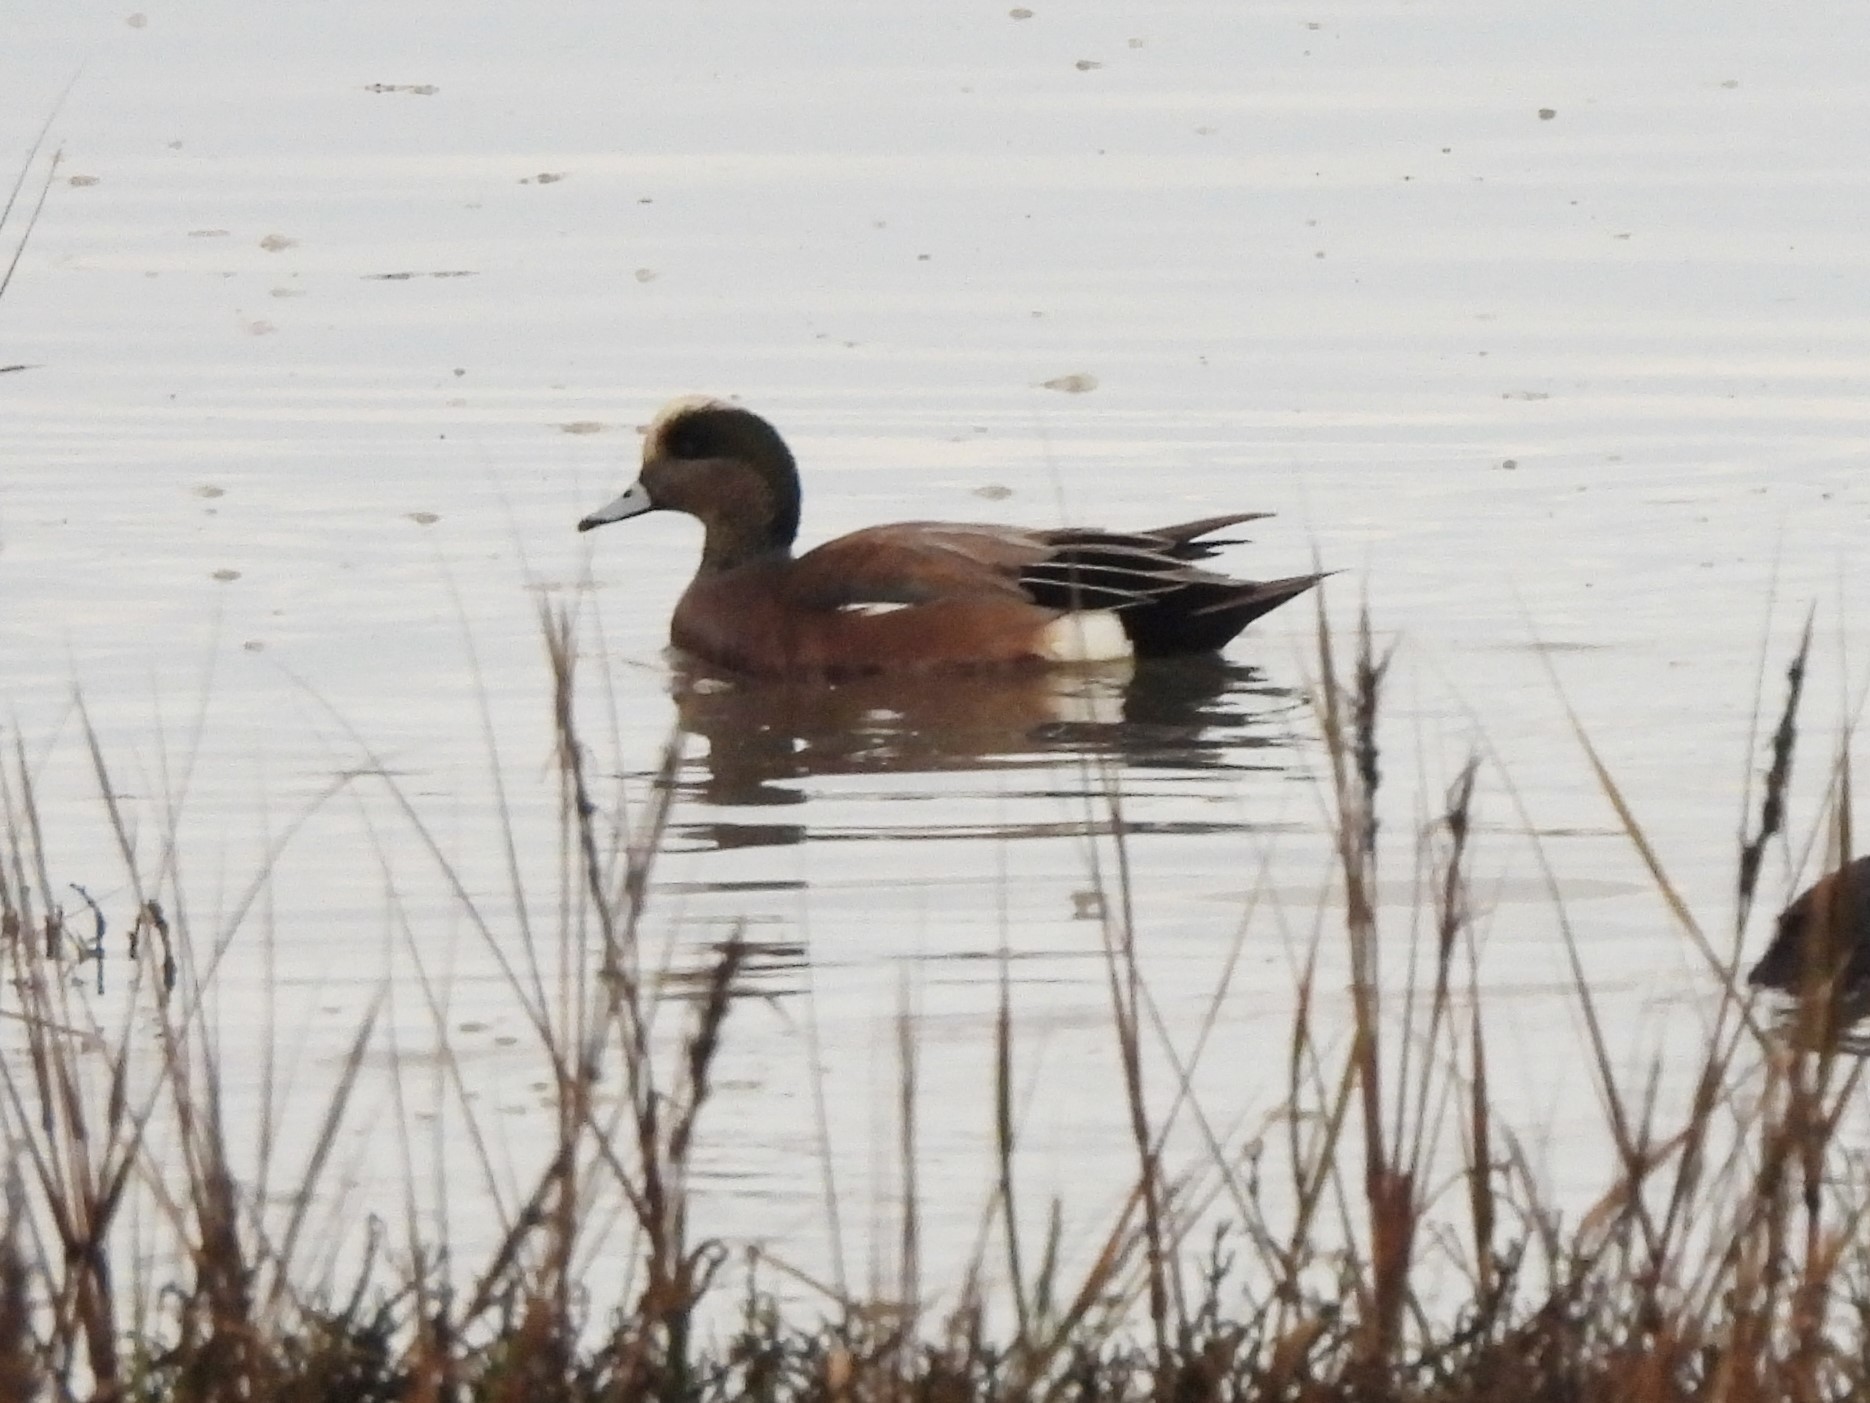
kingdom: Animalia
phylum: Chordata
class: Aves
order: Anseriformes
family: Anatidae
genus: Mareca
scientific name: Mareca americana
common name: American wigeon
